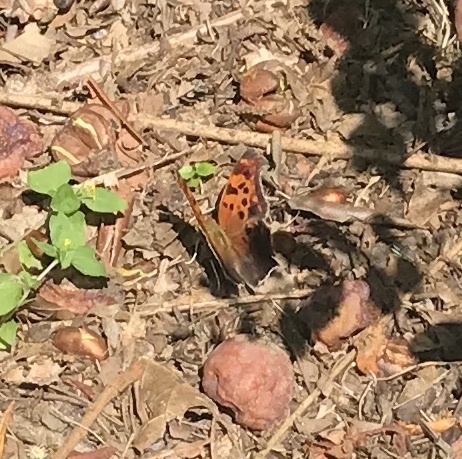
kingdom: Animalia
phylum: Arthropoda
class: Insecta
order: Lepidoptera
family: Nymphalidae
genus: Polygonia
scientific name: Polygonia interrogationis
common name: Question mark
